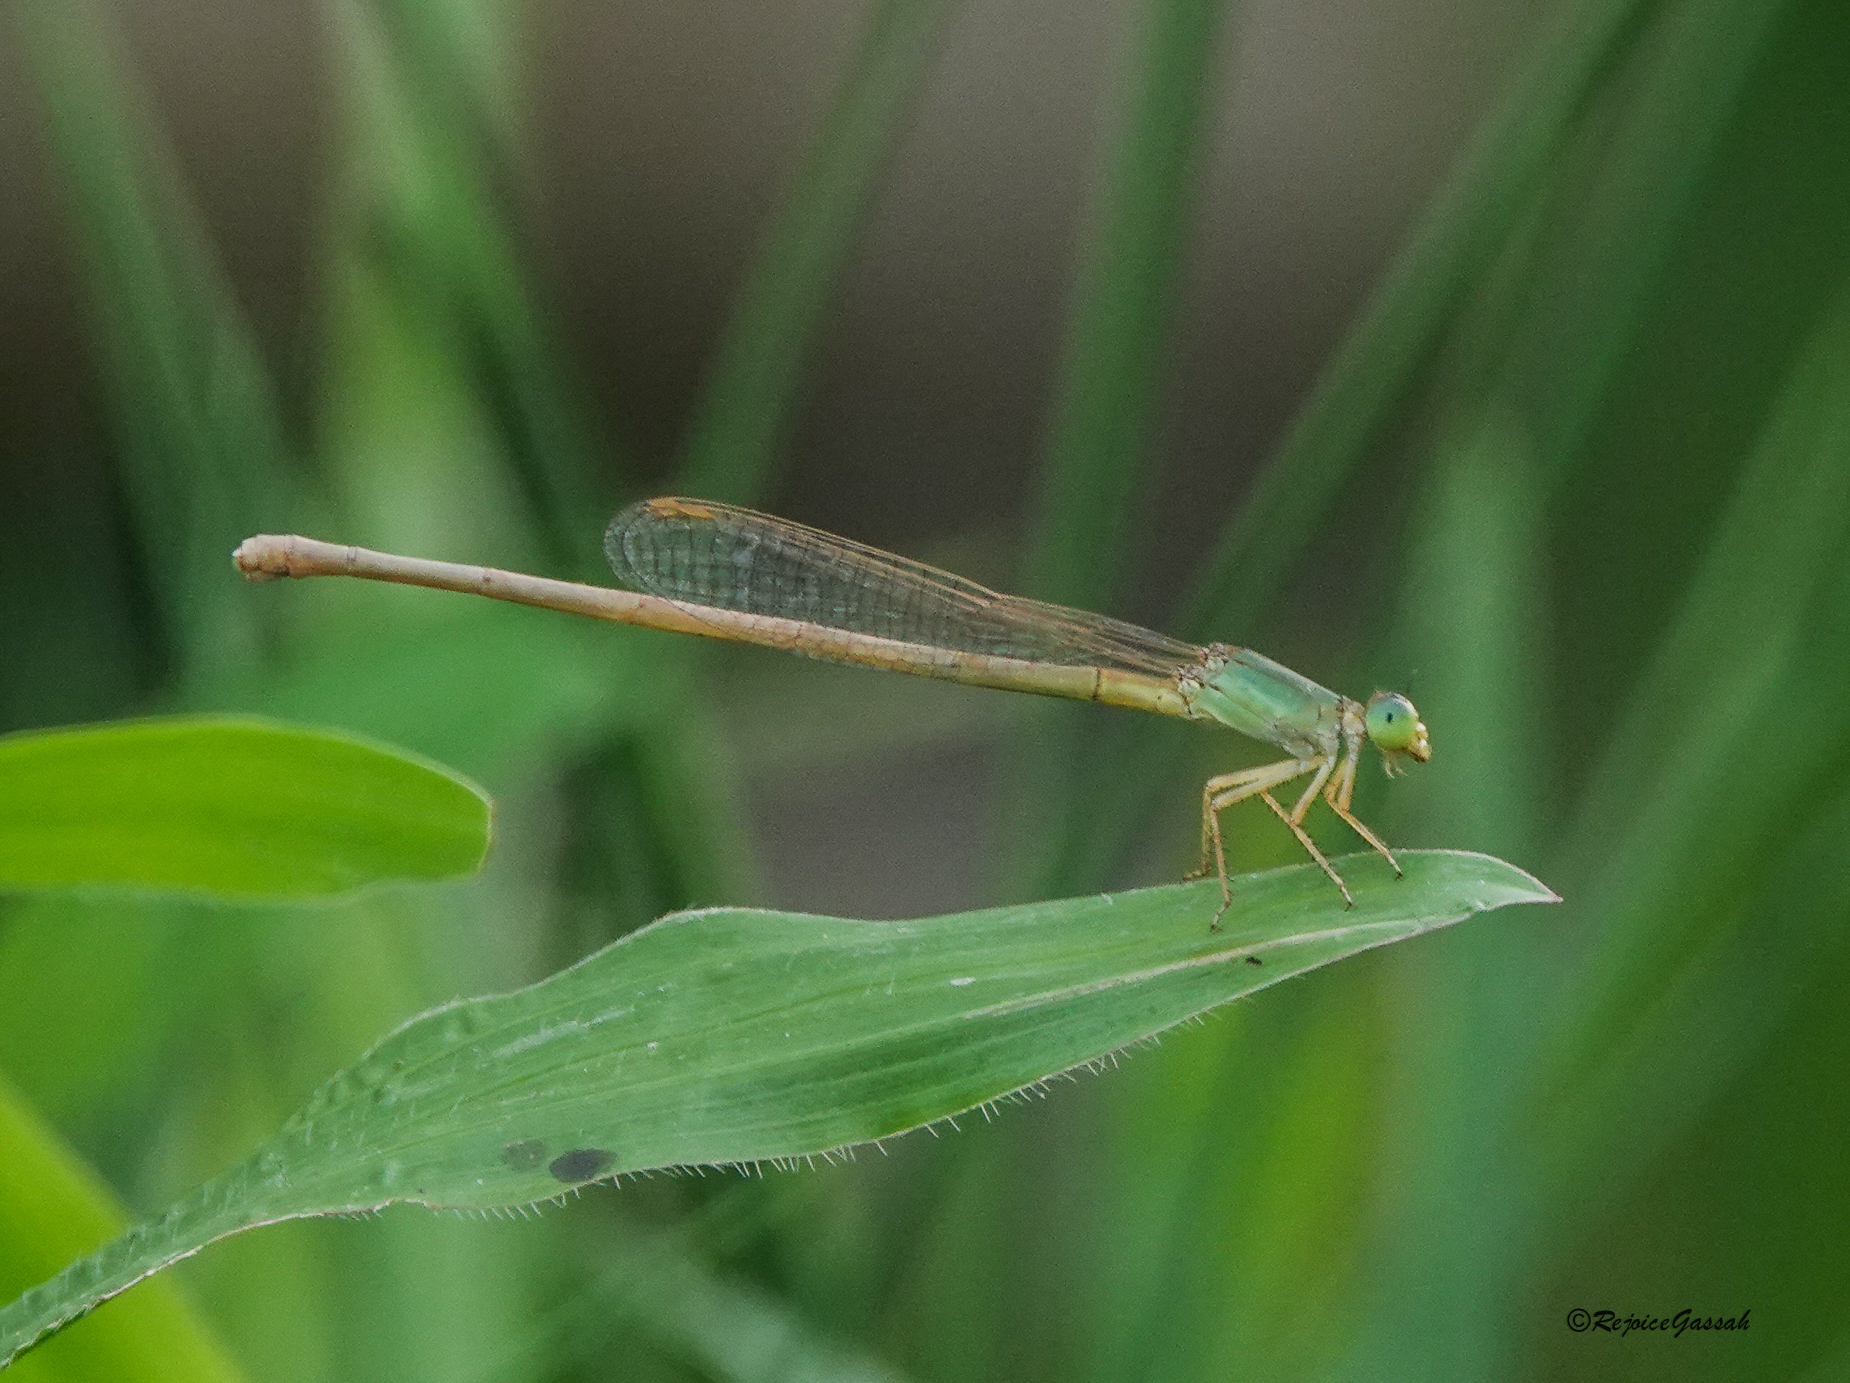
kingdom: Animalia
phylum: Arthropoda
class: Insecta
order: Odonata
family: Coenagrionidae
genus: Ceriagrion
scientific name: Ceriagrion olivaceum
